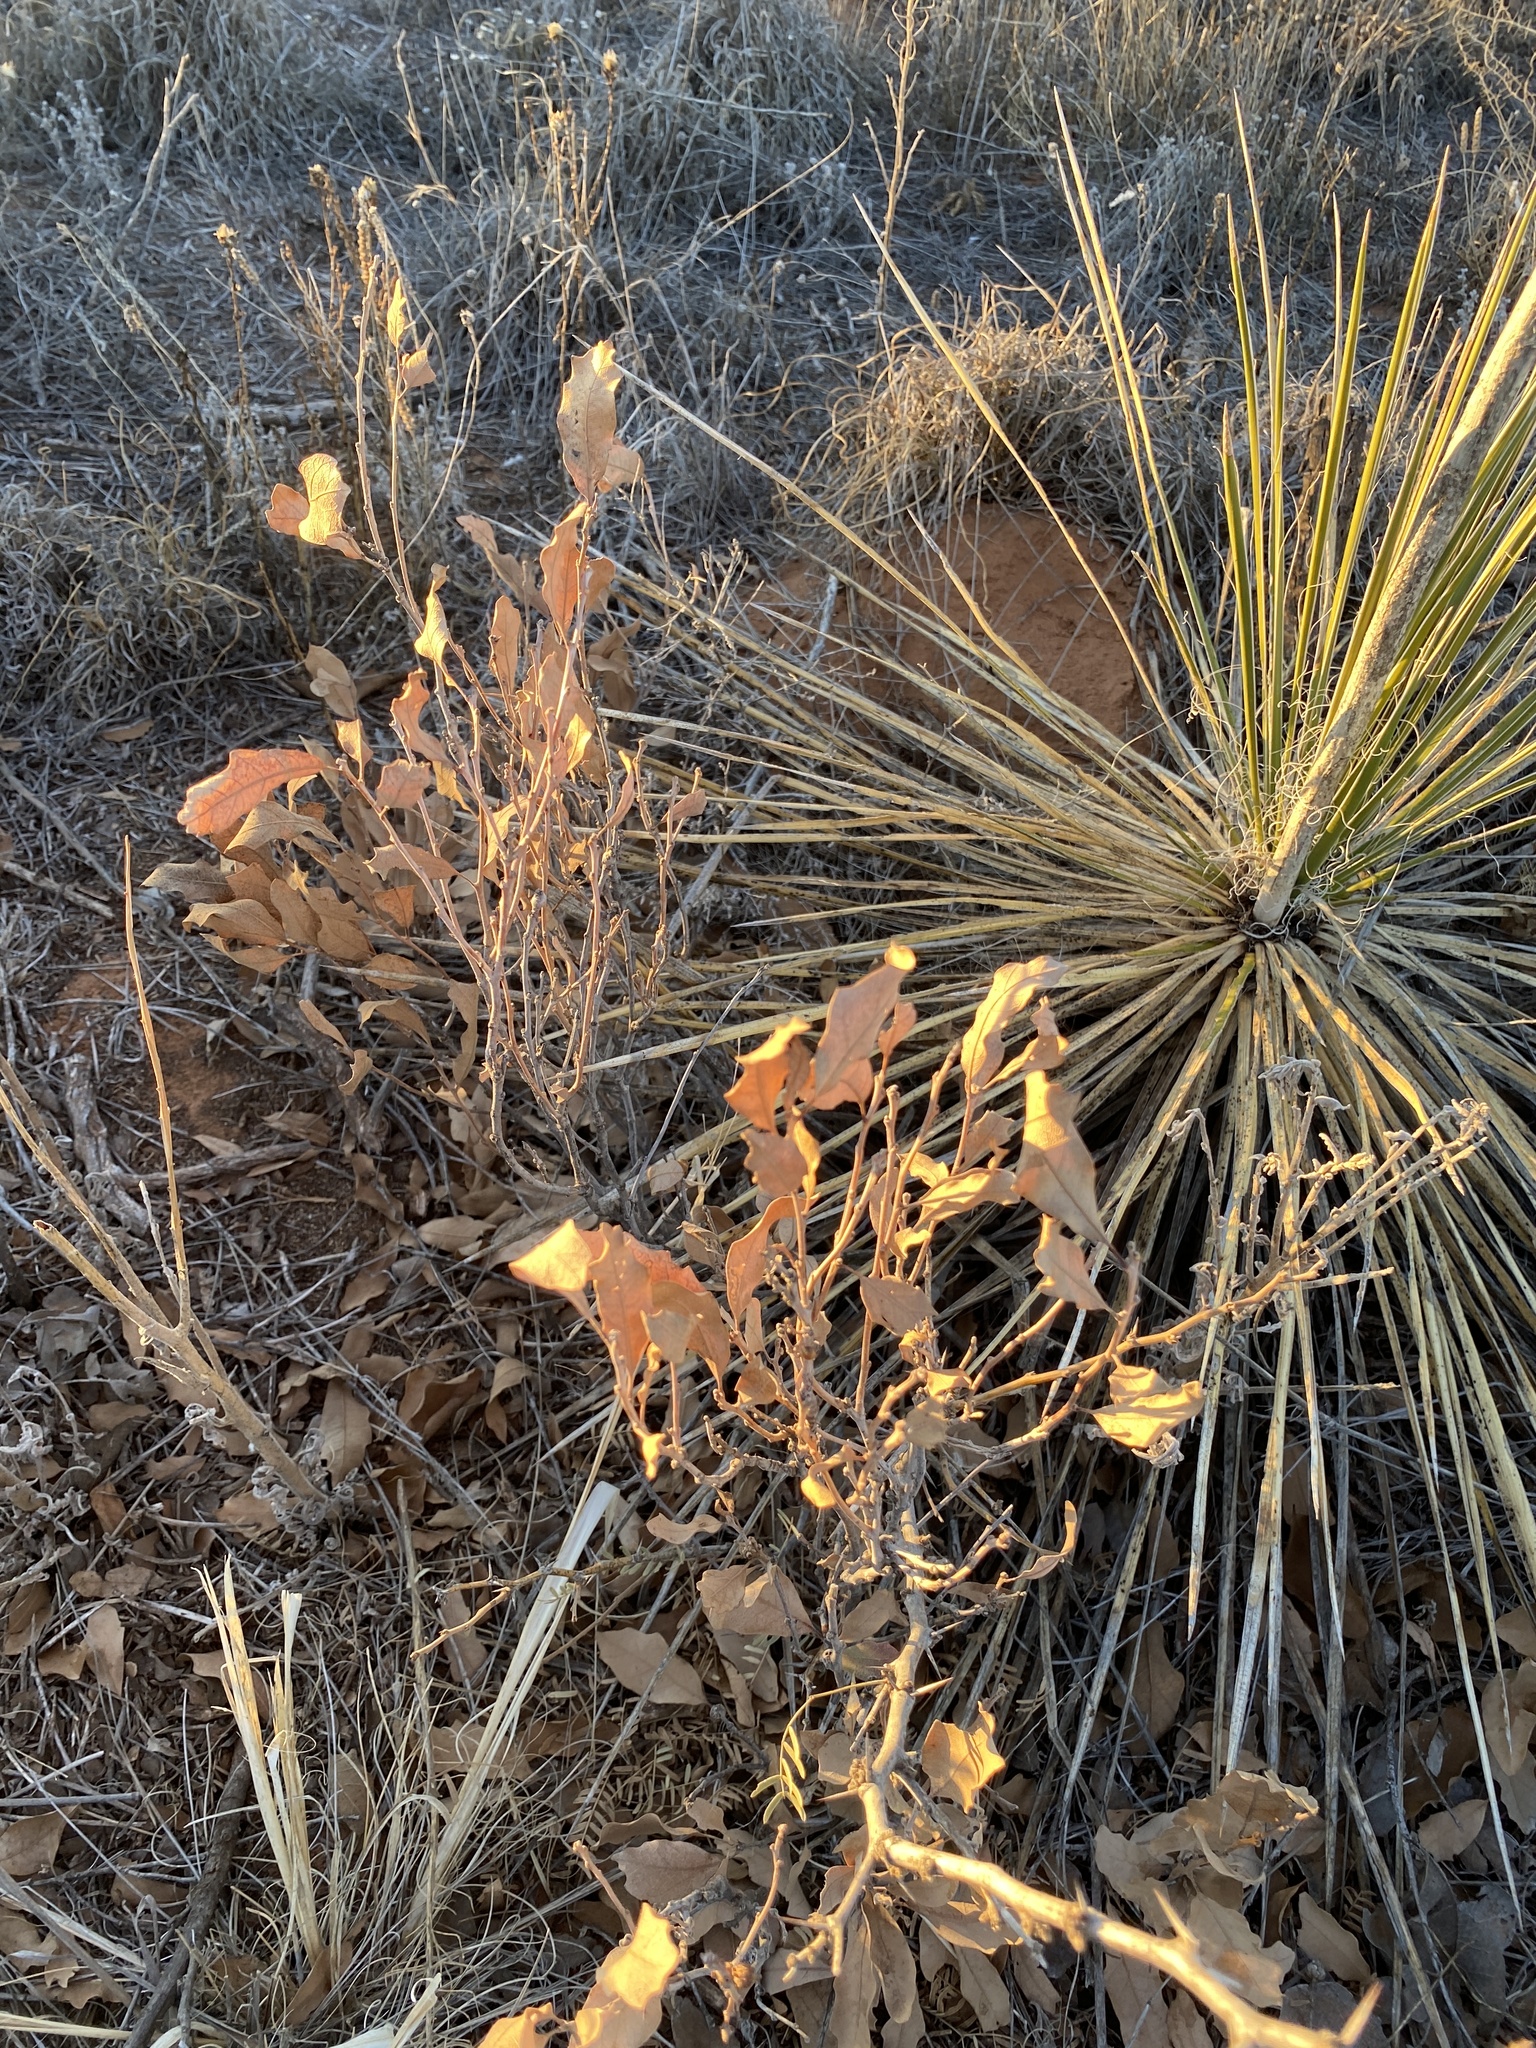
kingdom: Plantae
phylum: Tracheophyta
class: Magnoliopsida
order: Fagales
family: Fagaceae
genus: Quercus
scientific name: Quercus havardii
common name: Shinnery oak
